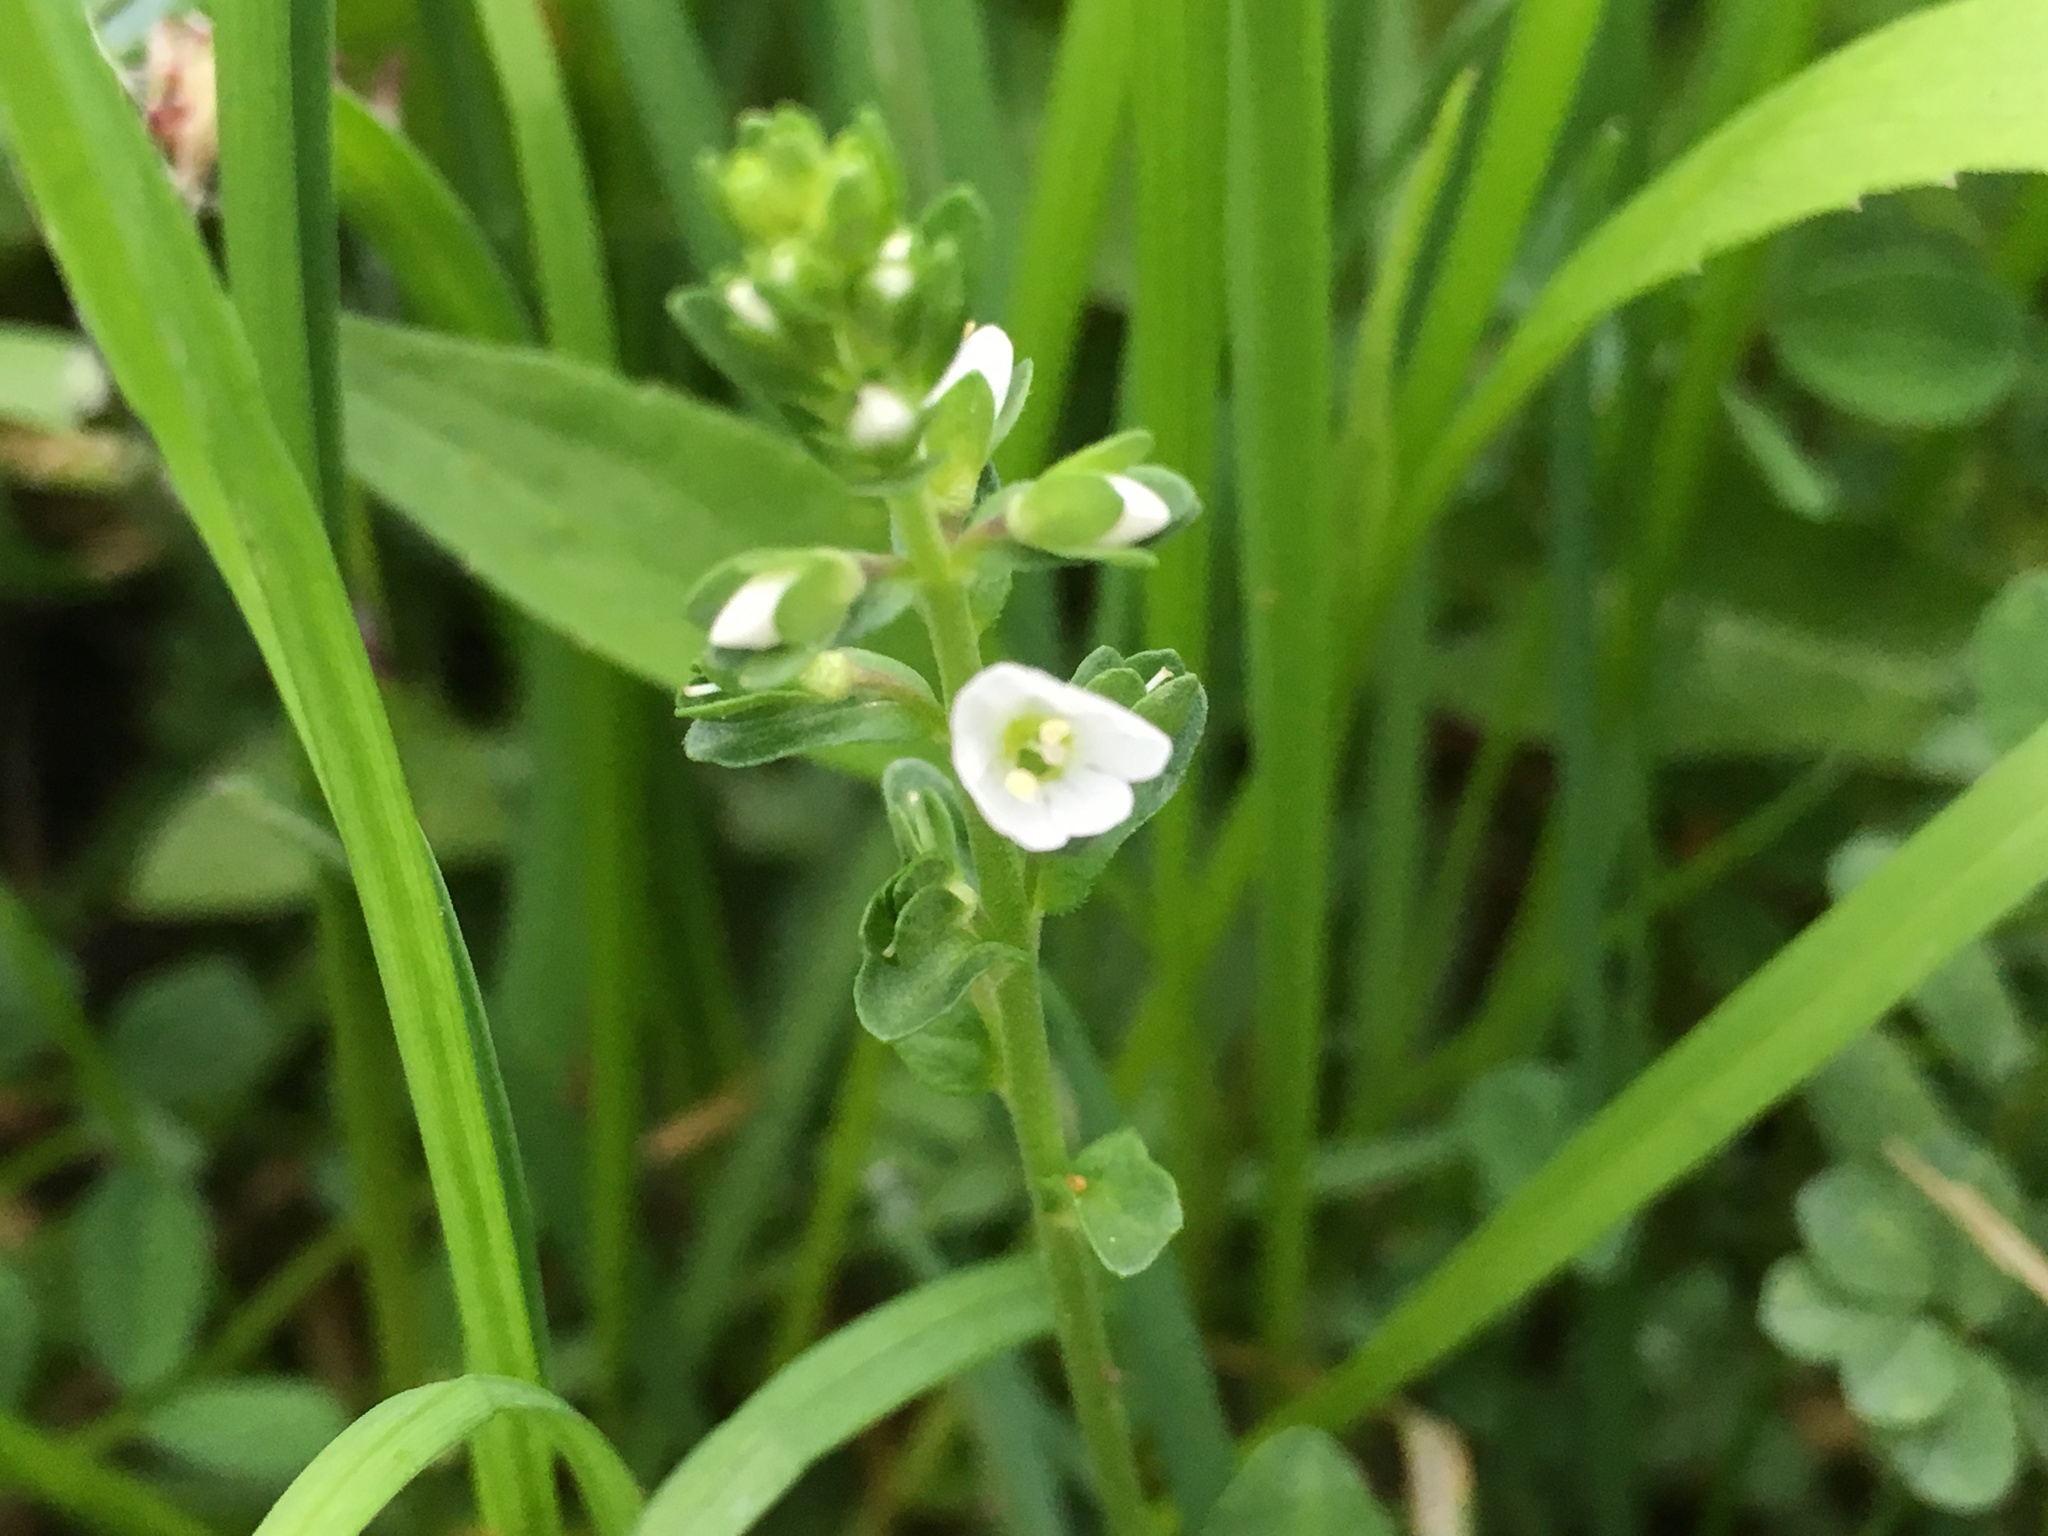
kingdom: Plantae
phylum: Tracheophyta
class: Magnoliopsida
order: Lamiales
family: Plantaginaceae
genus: Veronica
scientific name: Veronica serpyllifolia
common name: Thyme-leaved speedwell
